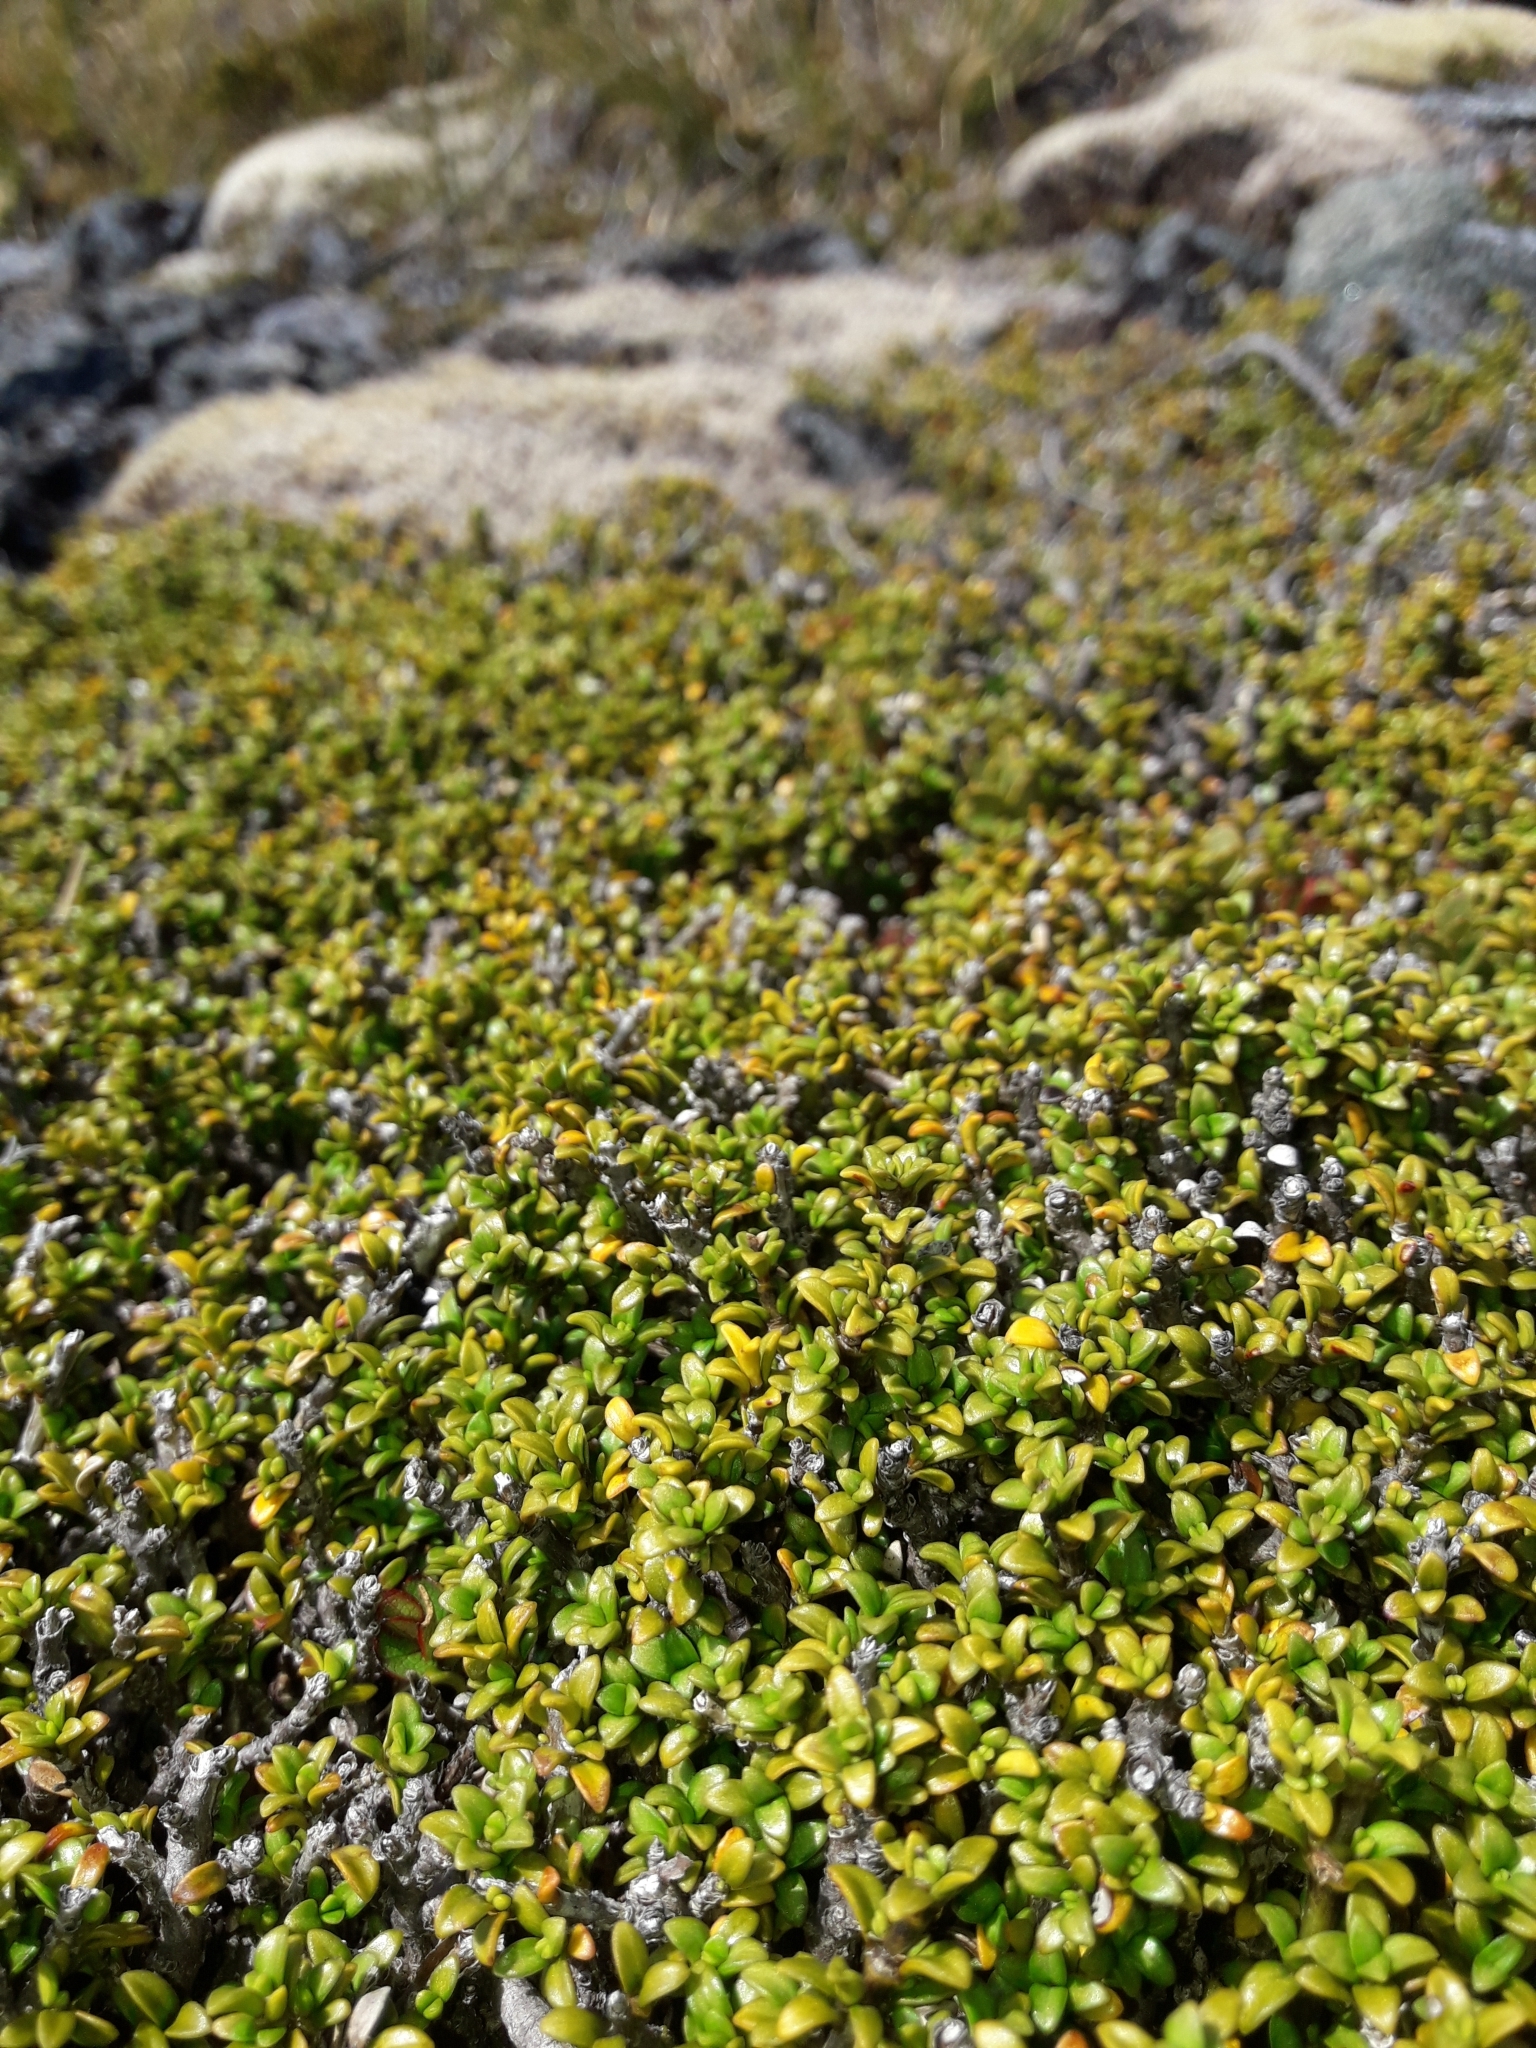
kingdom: Plantae
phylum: Tracheophyta
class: Magnoliopsida
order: Gentianales
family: Rubiaceae
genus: Coprosma
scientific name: Coprosma fowerakeri
